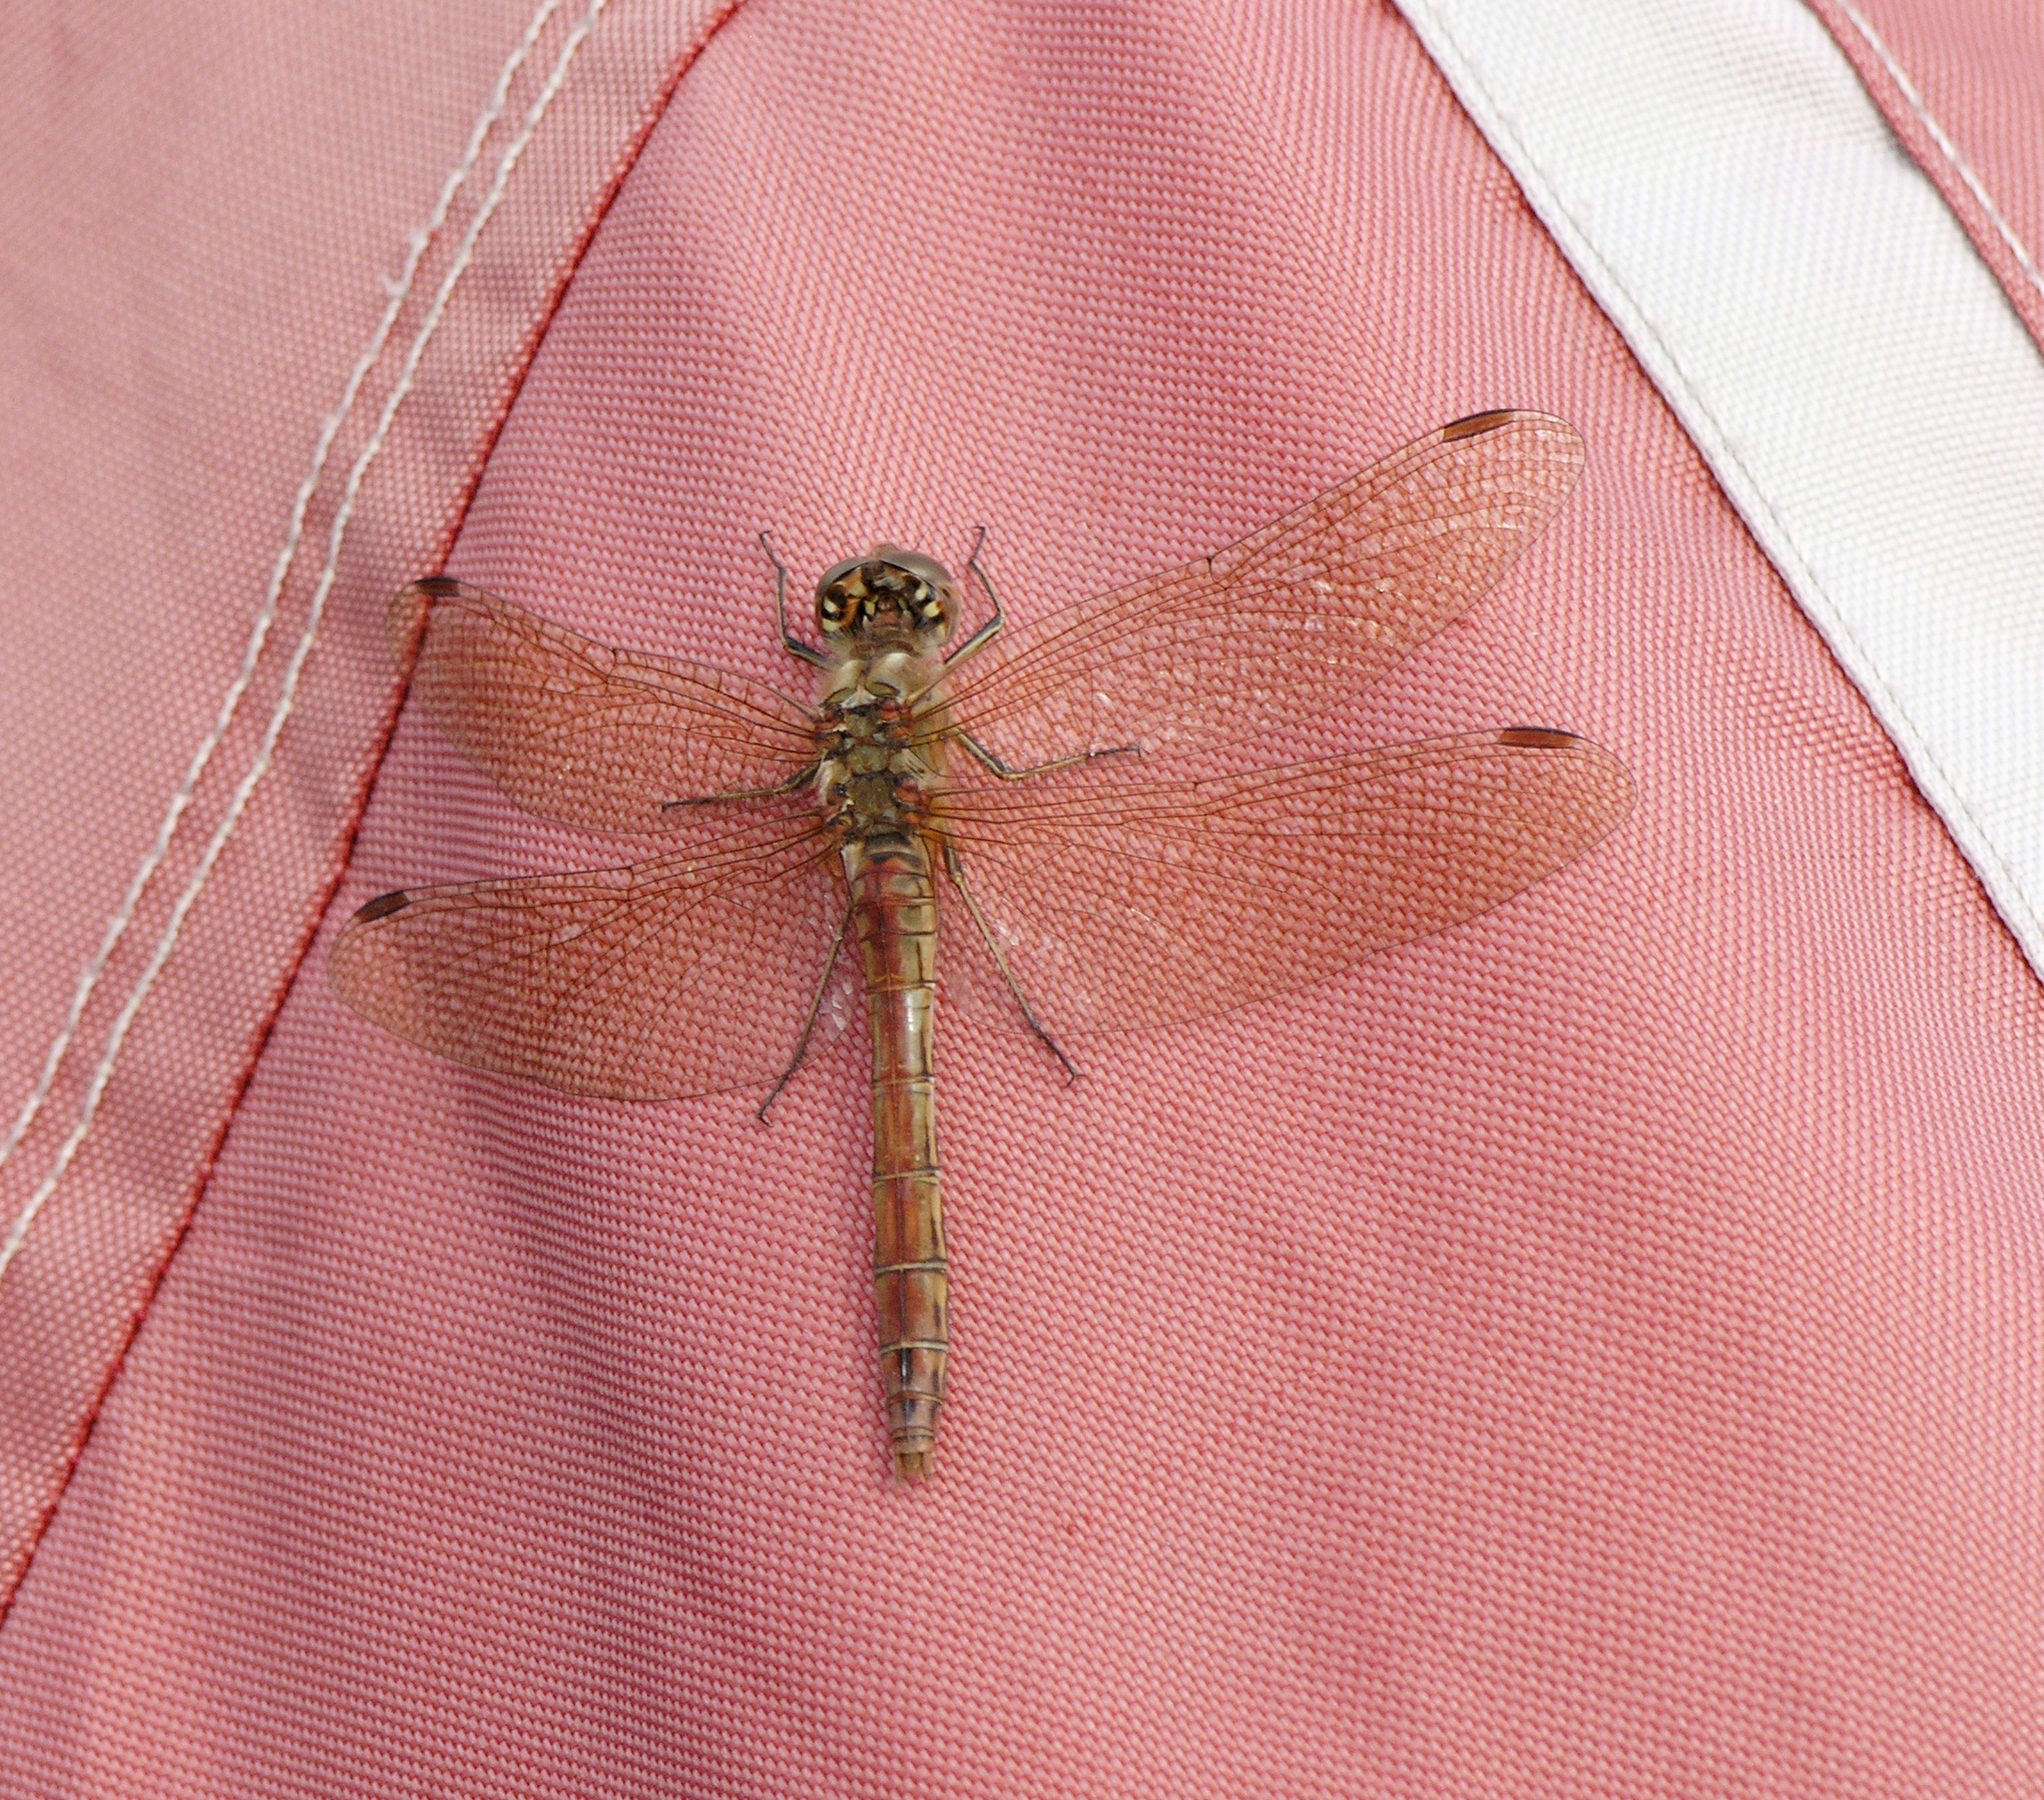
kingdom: Animalia
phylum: Arthropoda
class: Insecta
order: Odonata
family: Libellulidae
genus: Sympetrum
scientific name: Sympetrum vulgatum
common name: Vagrant darter
